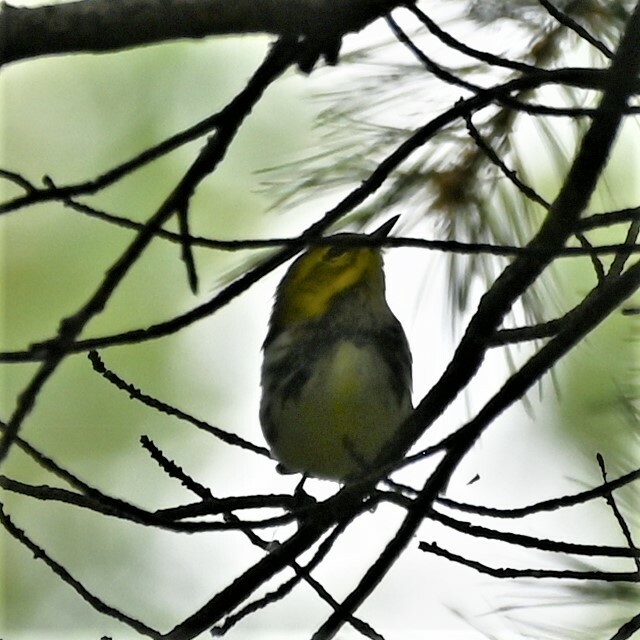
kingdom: Animalia
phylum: Chordata
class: Aves
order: Passeriformes
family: Parulidae
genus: Setophaga
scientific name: Setophaga virens
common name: Black-throated green warbler
